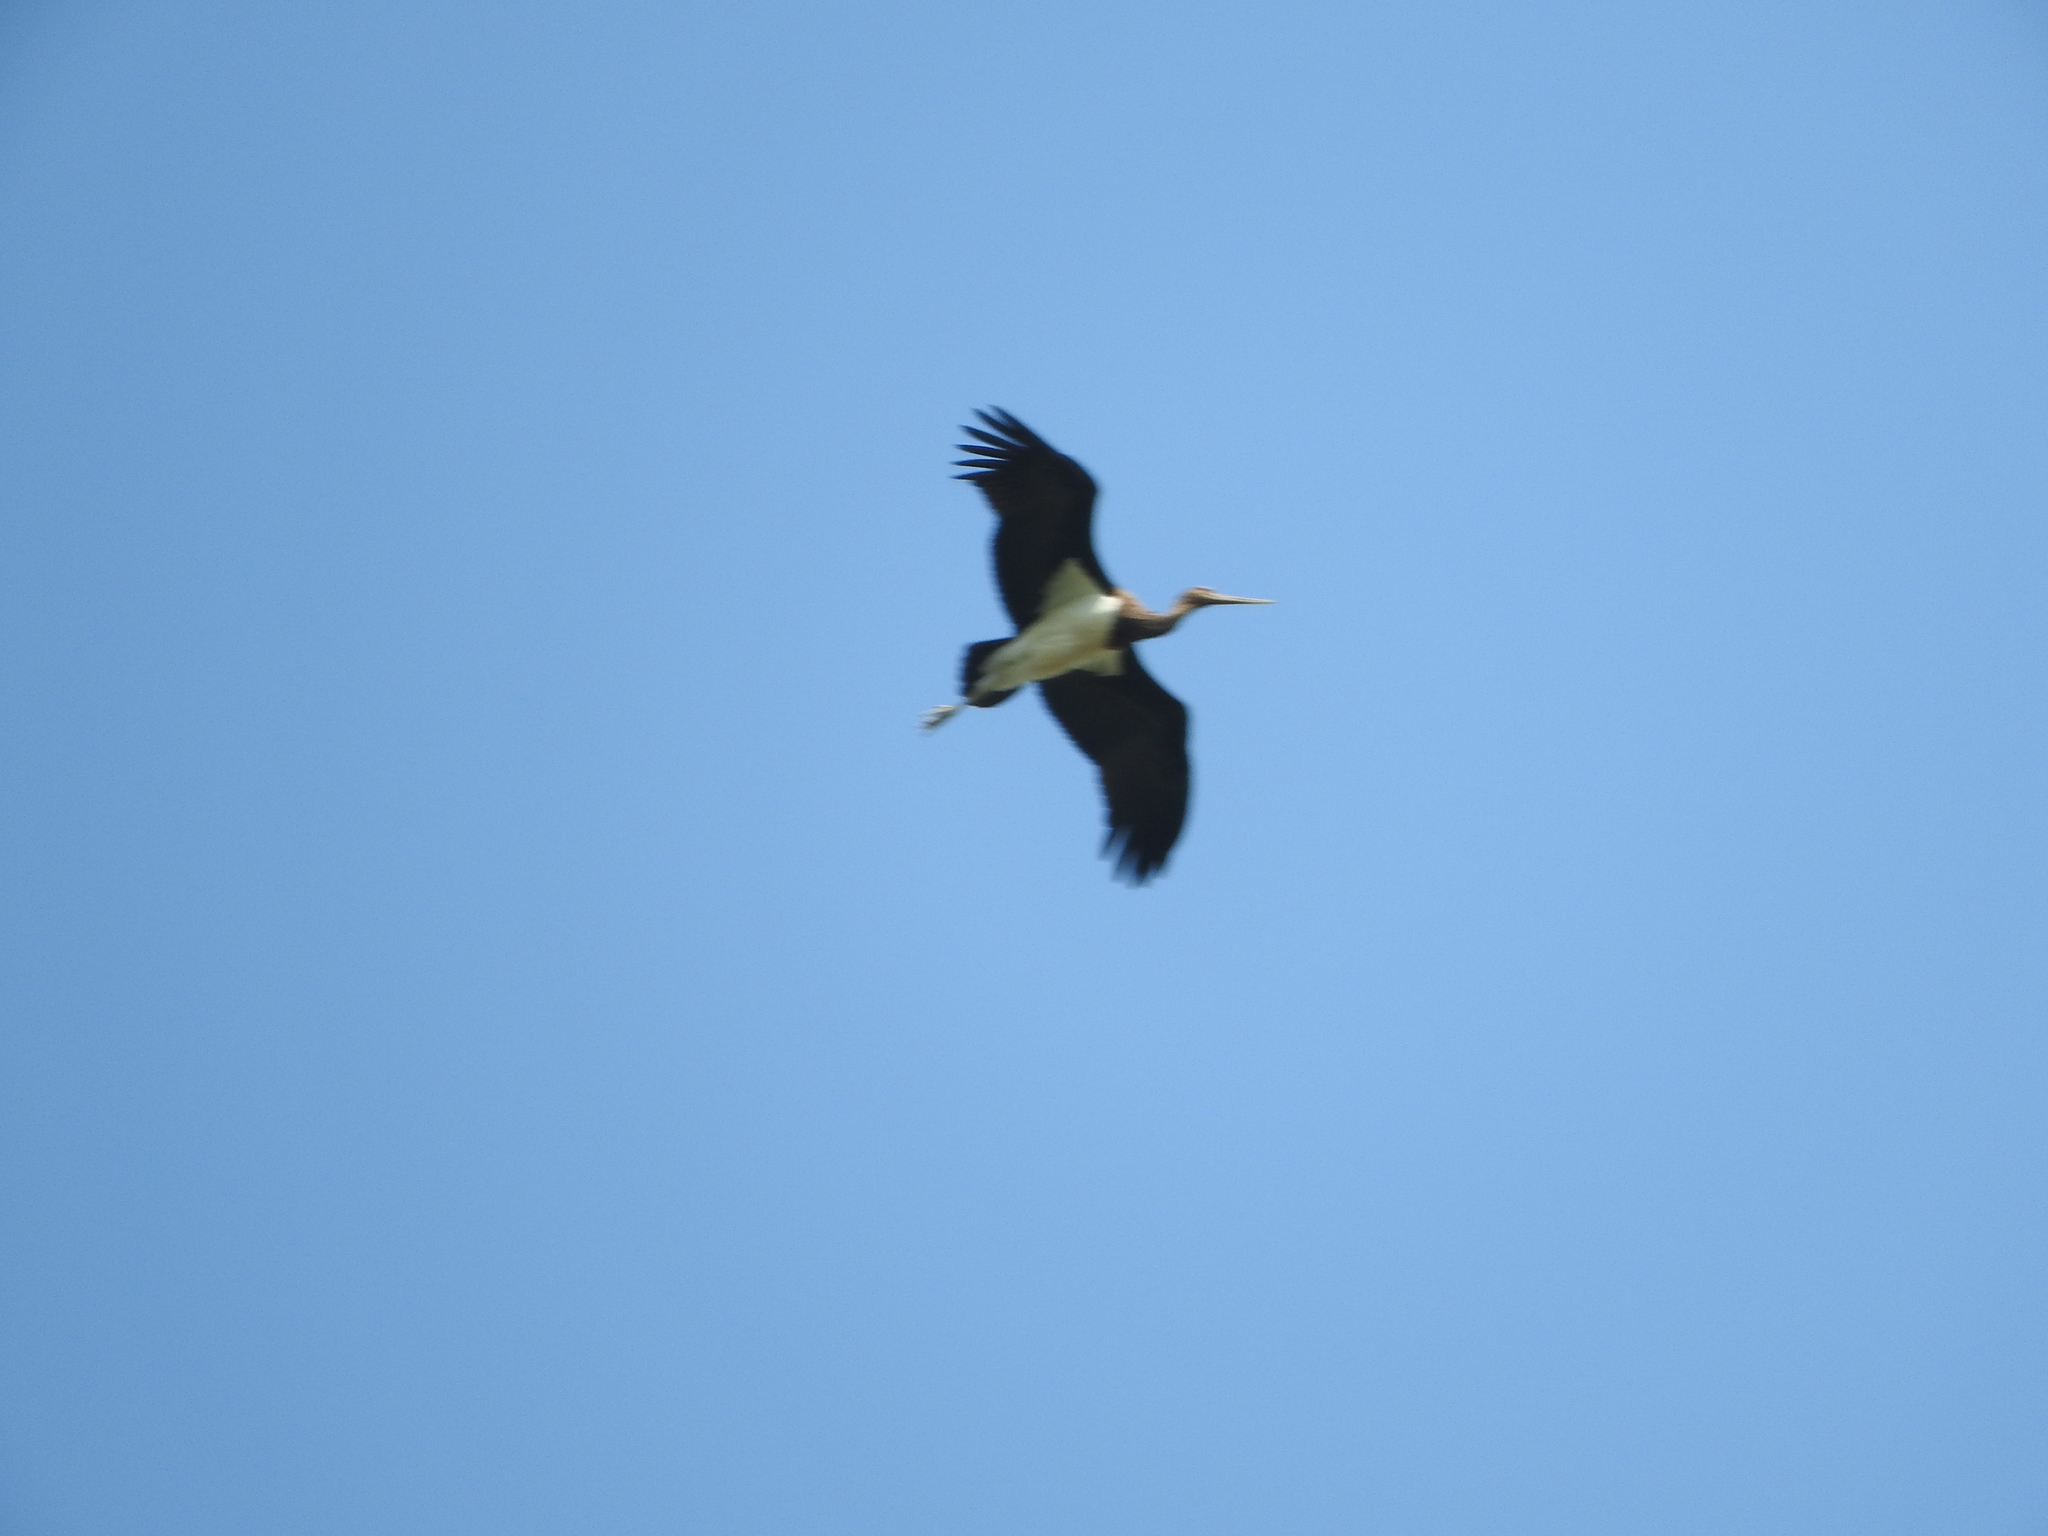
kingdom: Animalia
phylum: Chordata
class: Aves
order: Ciconiiformes
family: Ciconiidae
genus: Ciconia
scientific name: Ciconia nigra
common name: Black stork
